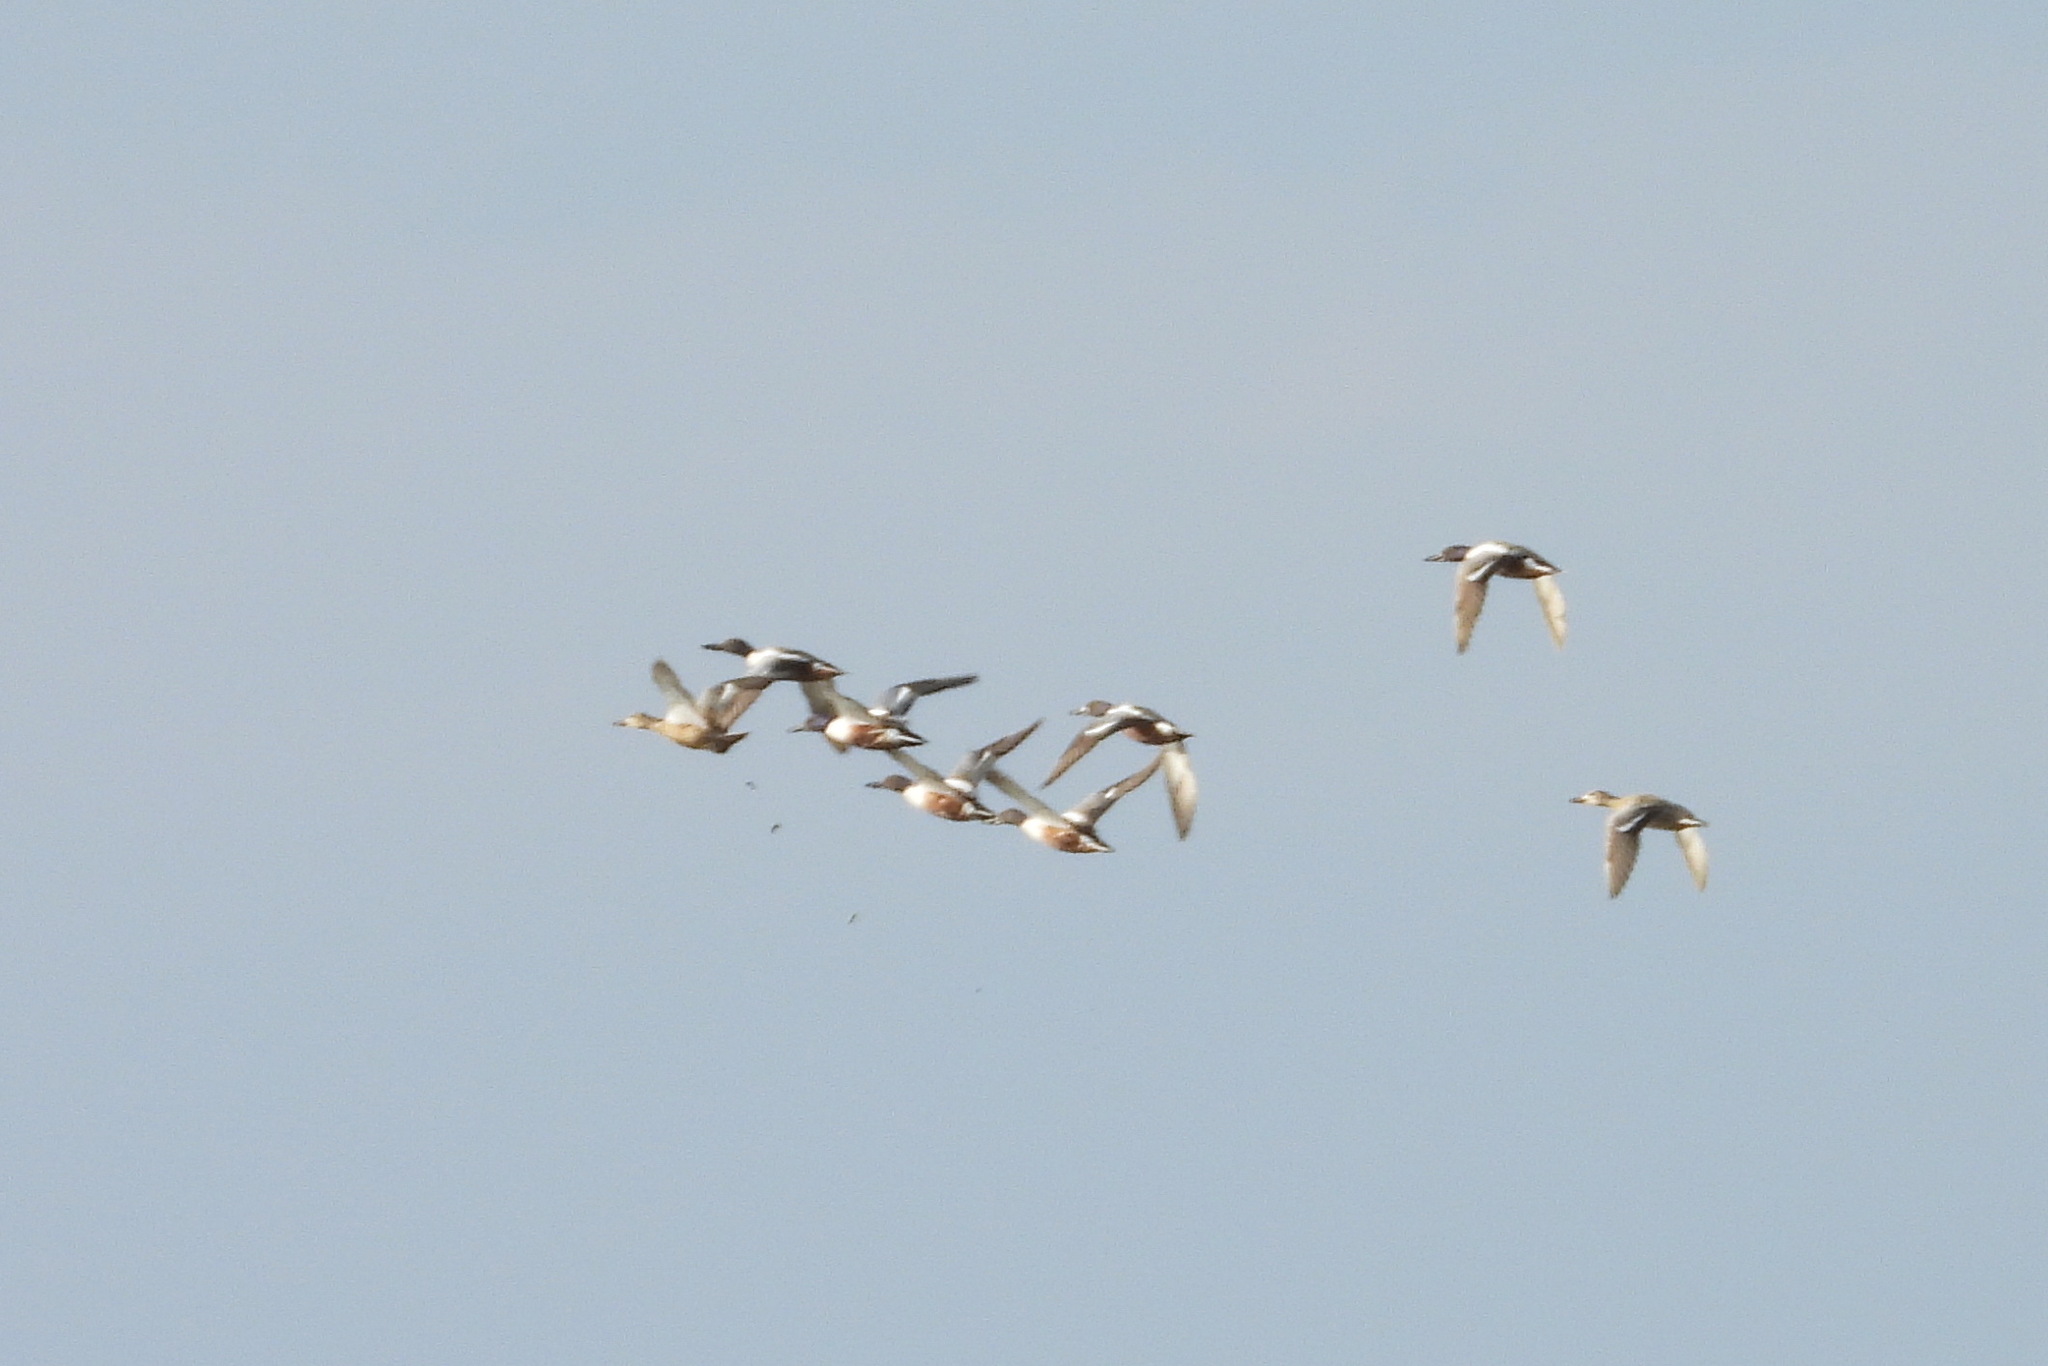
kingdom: Animalia
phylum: Chordata
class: Aves
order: Anseriformes
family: Anatidae
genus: Spatula
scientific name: Spatula clypeata
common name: Northern shoveler
